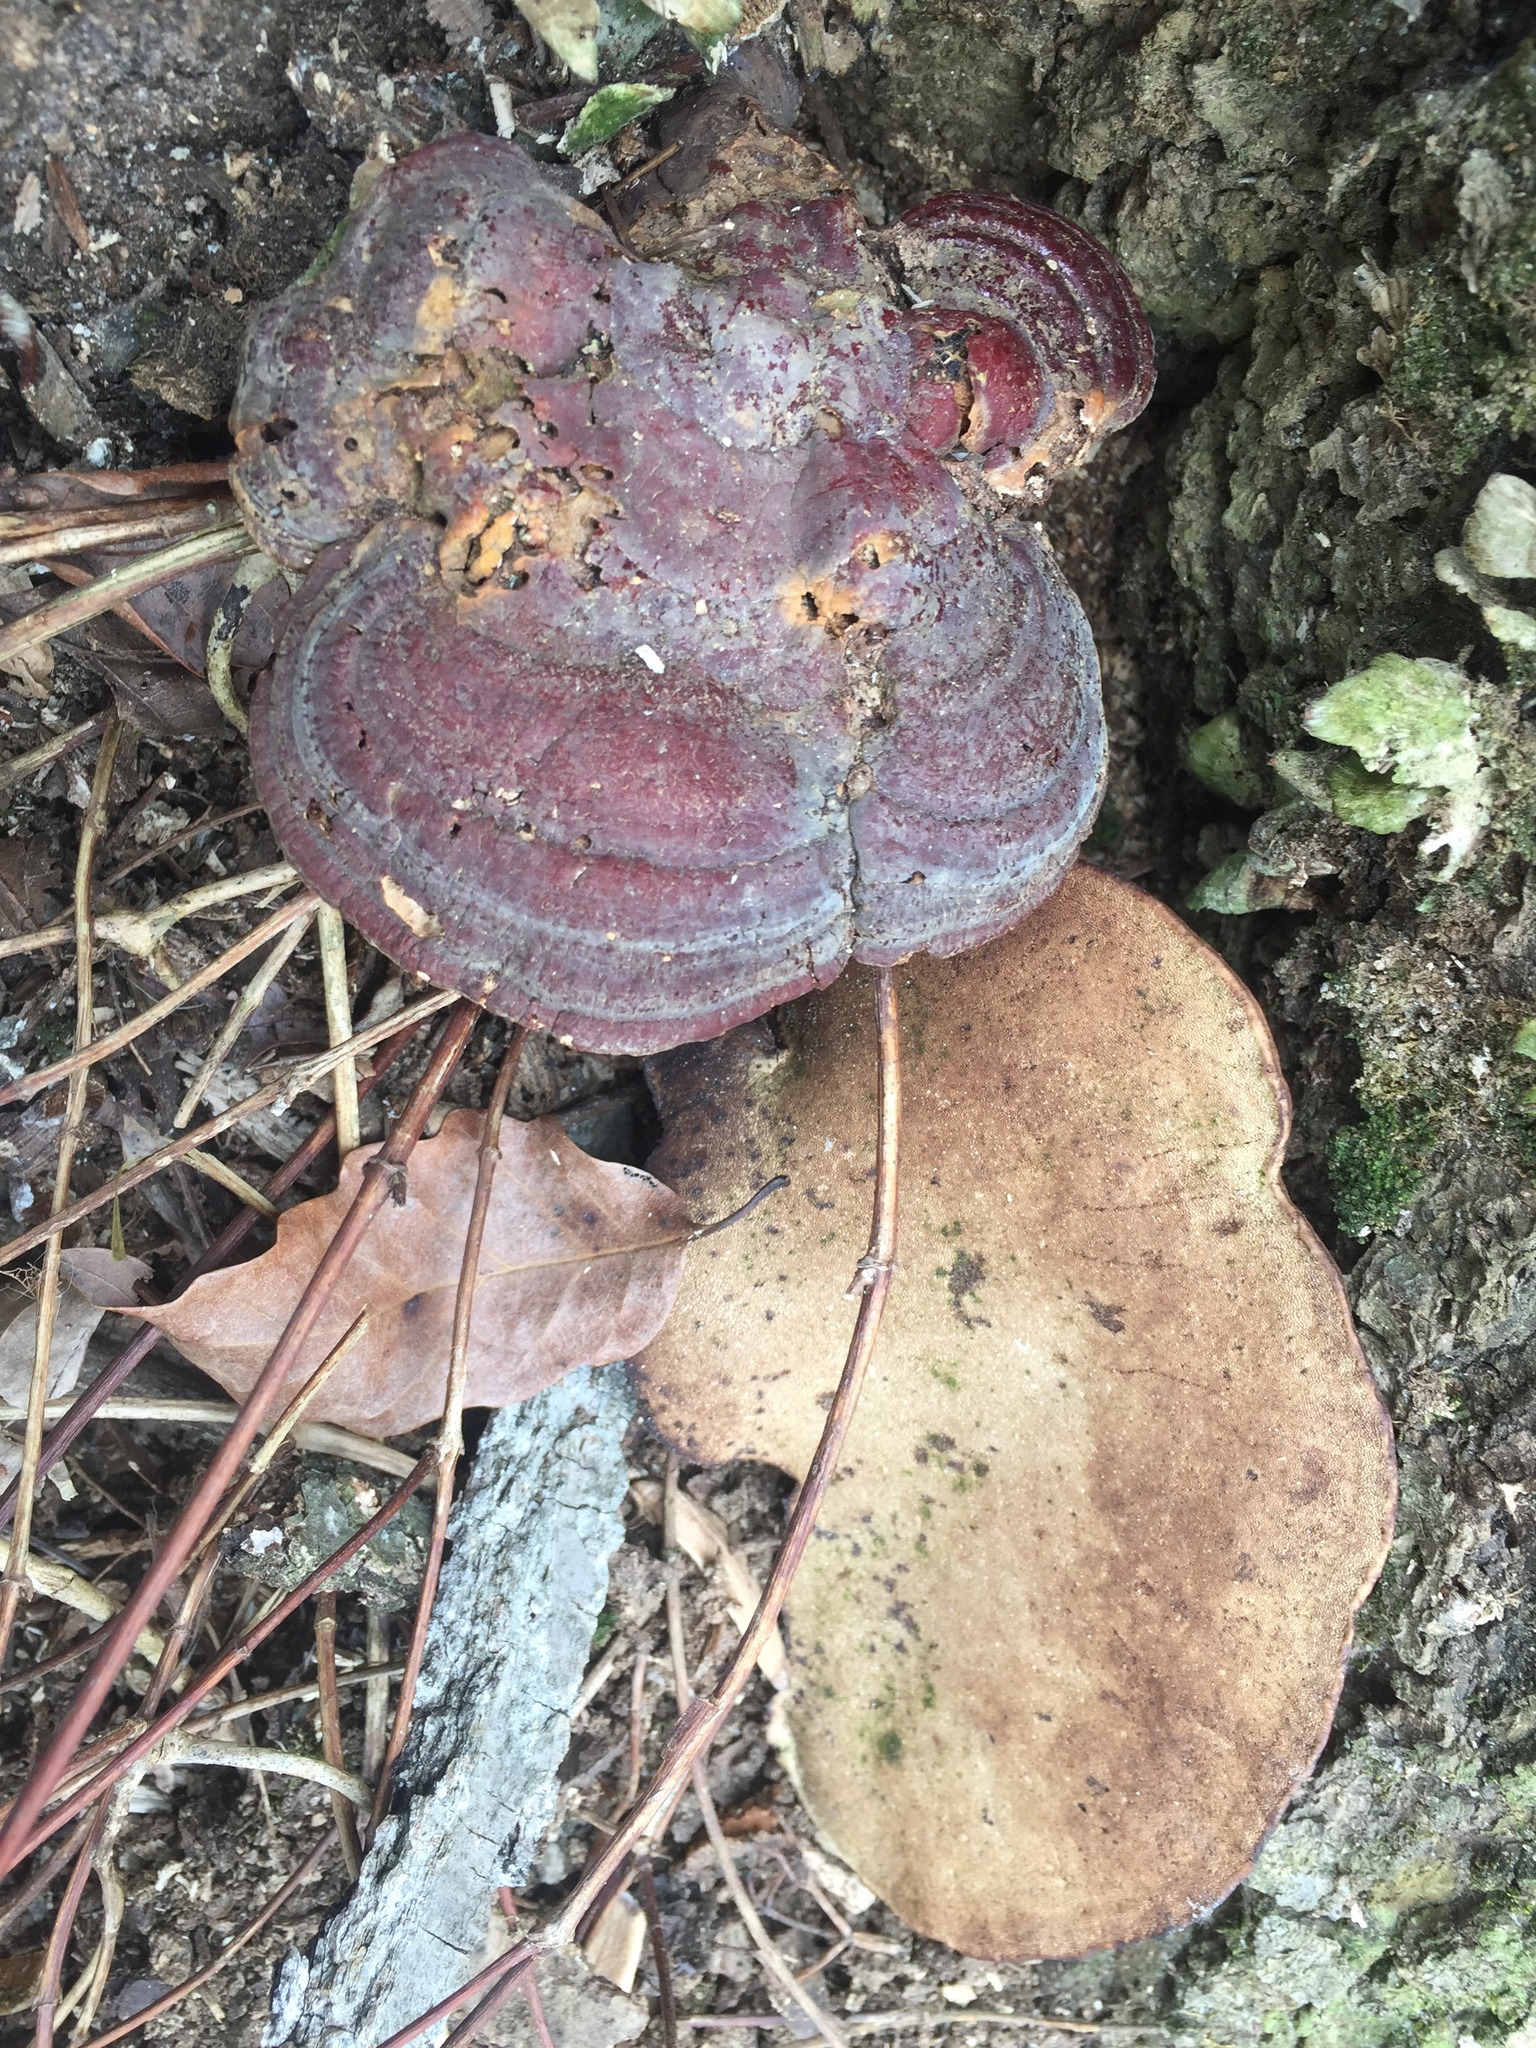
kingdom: Fungi
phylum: Basidiomycota
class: Agaricomycetes
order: Polyporales
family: Polyporaceae
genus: Ganoderma
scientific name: Ganoderma resinaceum
